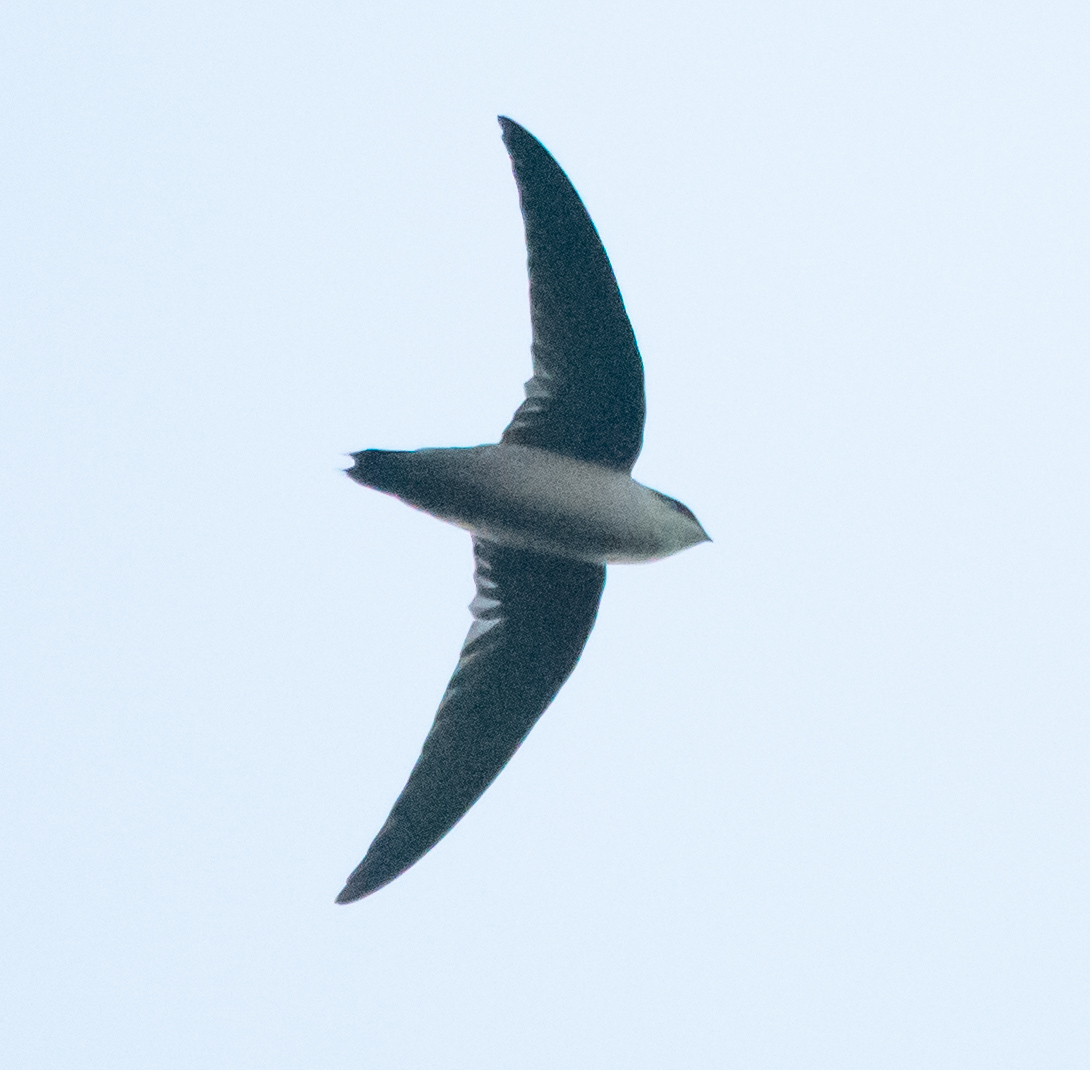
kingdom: Animalia
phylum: Chordata
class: Aves
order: Apodiformes
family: Apodidae
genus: Chaetura
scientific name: Chaetura vauxi
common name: Vaux's swift
